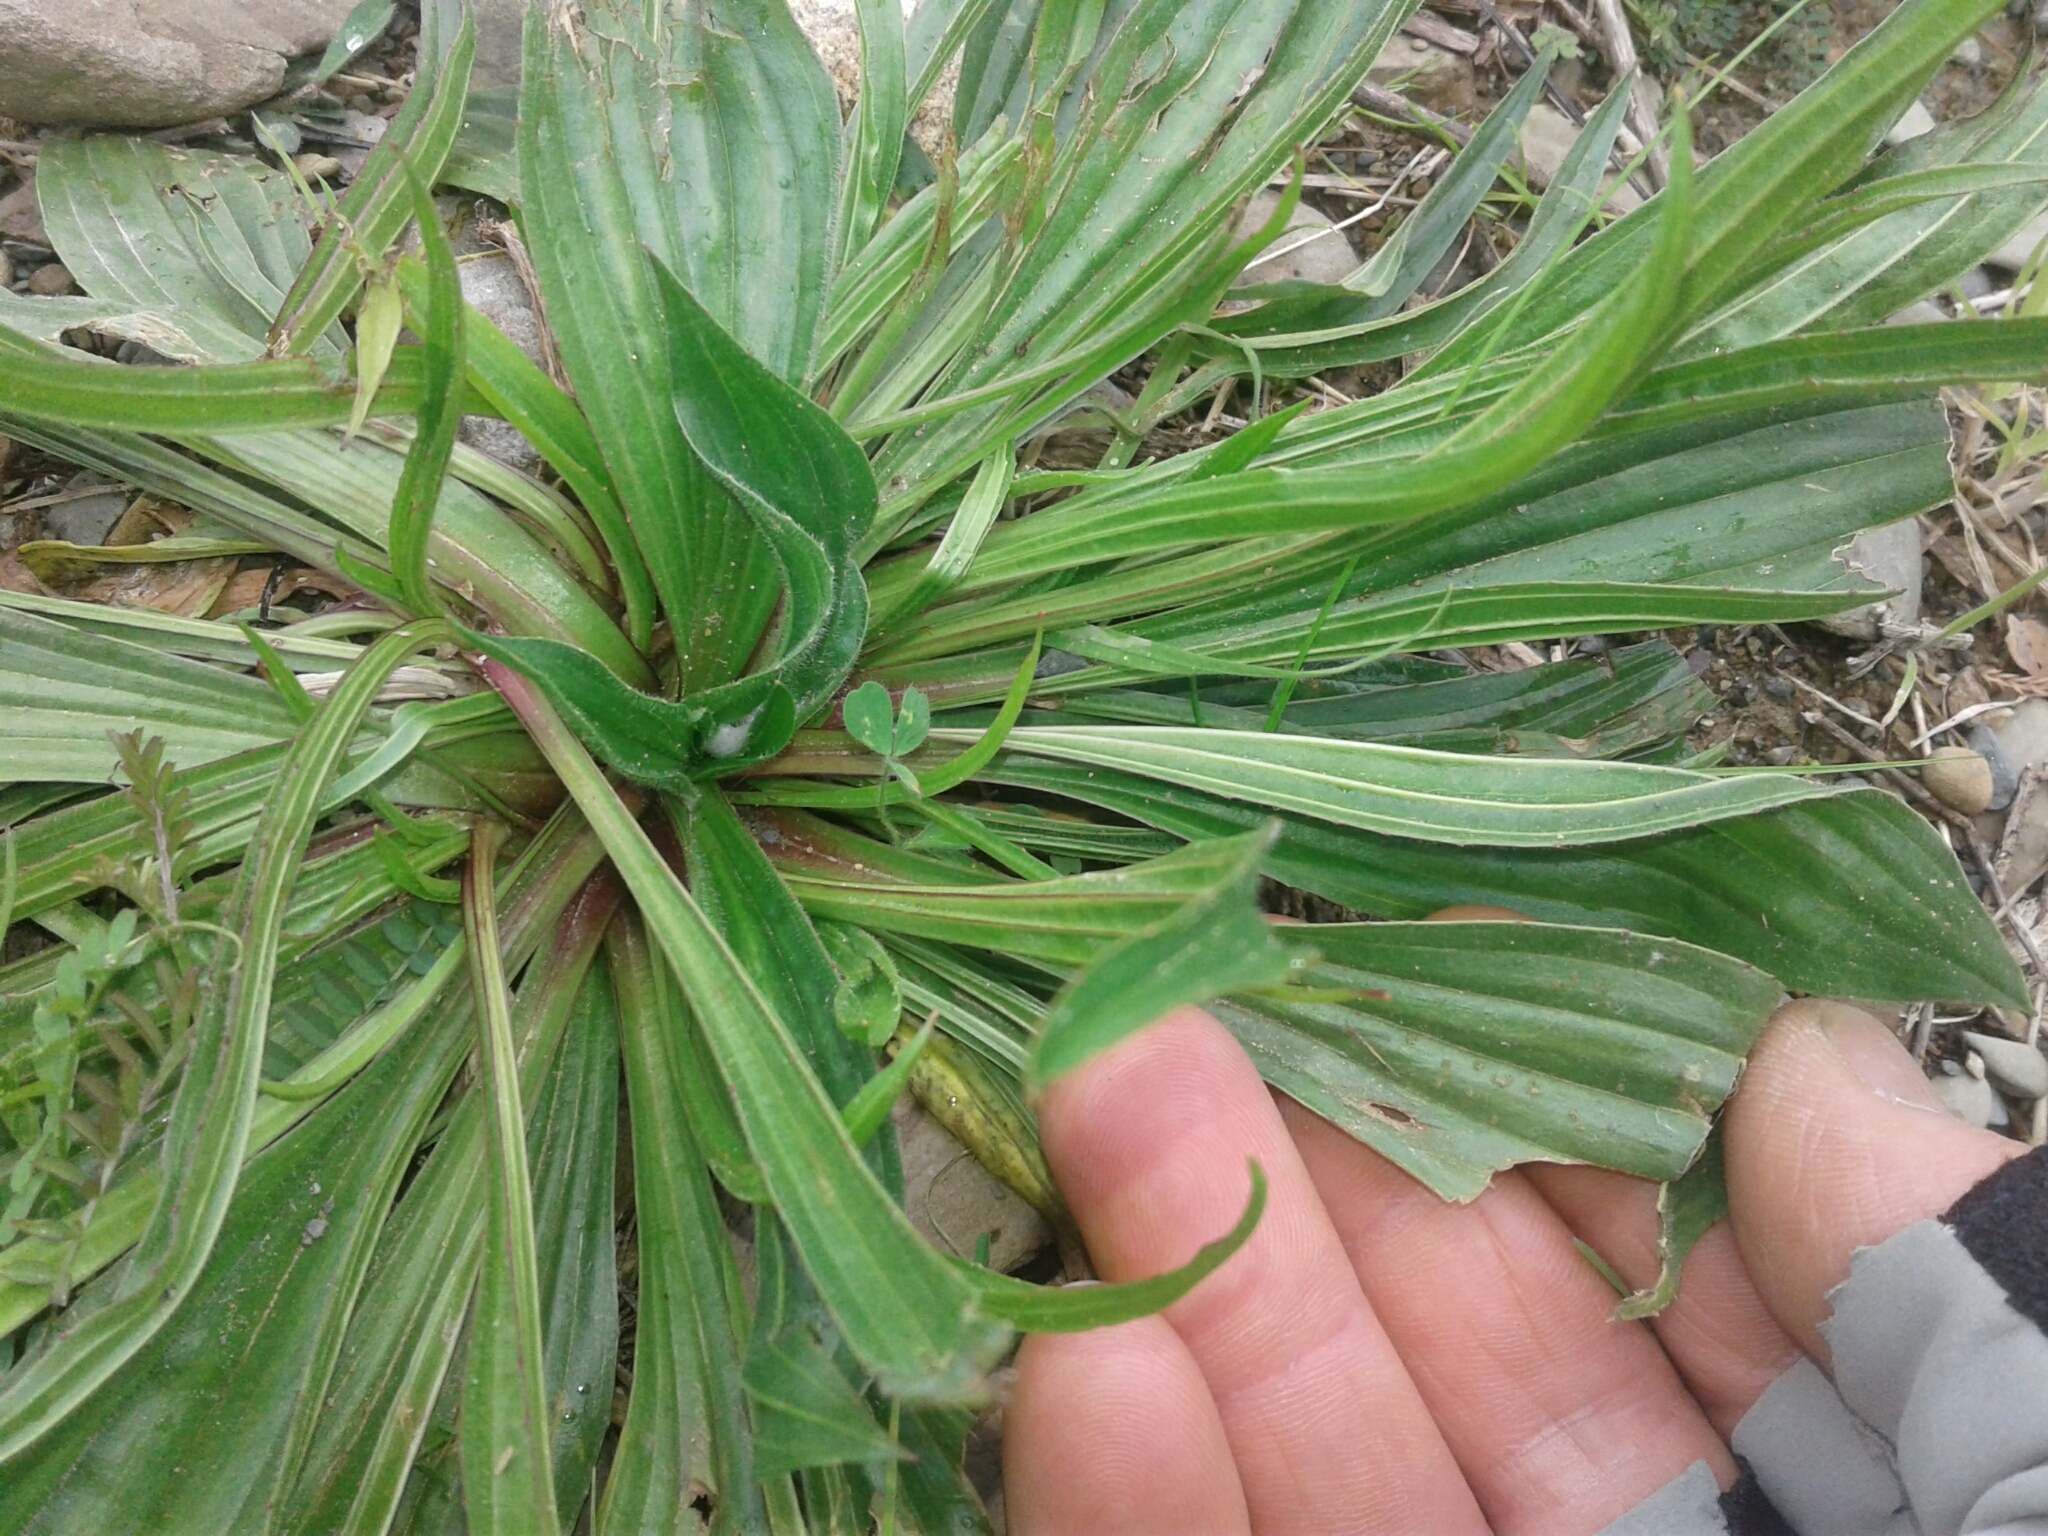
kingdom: Plantae
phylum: Tracheophyta
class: Magnoliopsida
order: Lamiales
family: Plantaginaceae
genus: Plantago
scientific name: Plantago lanceolata
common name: Ribwort plantain
